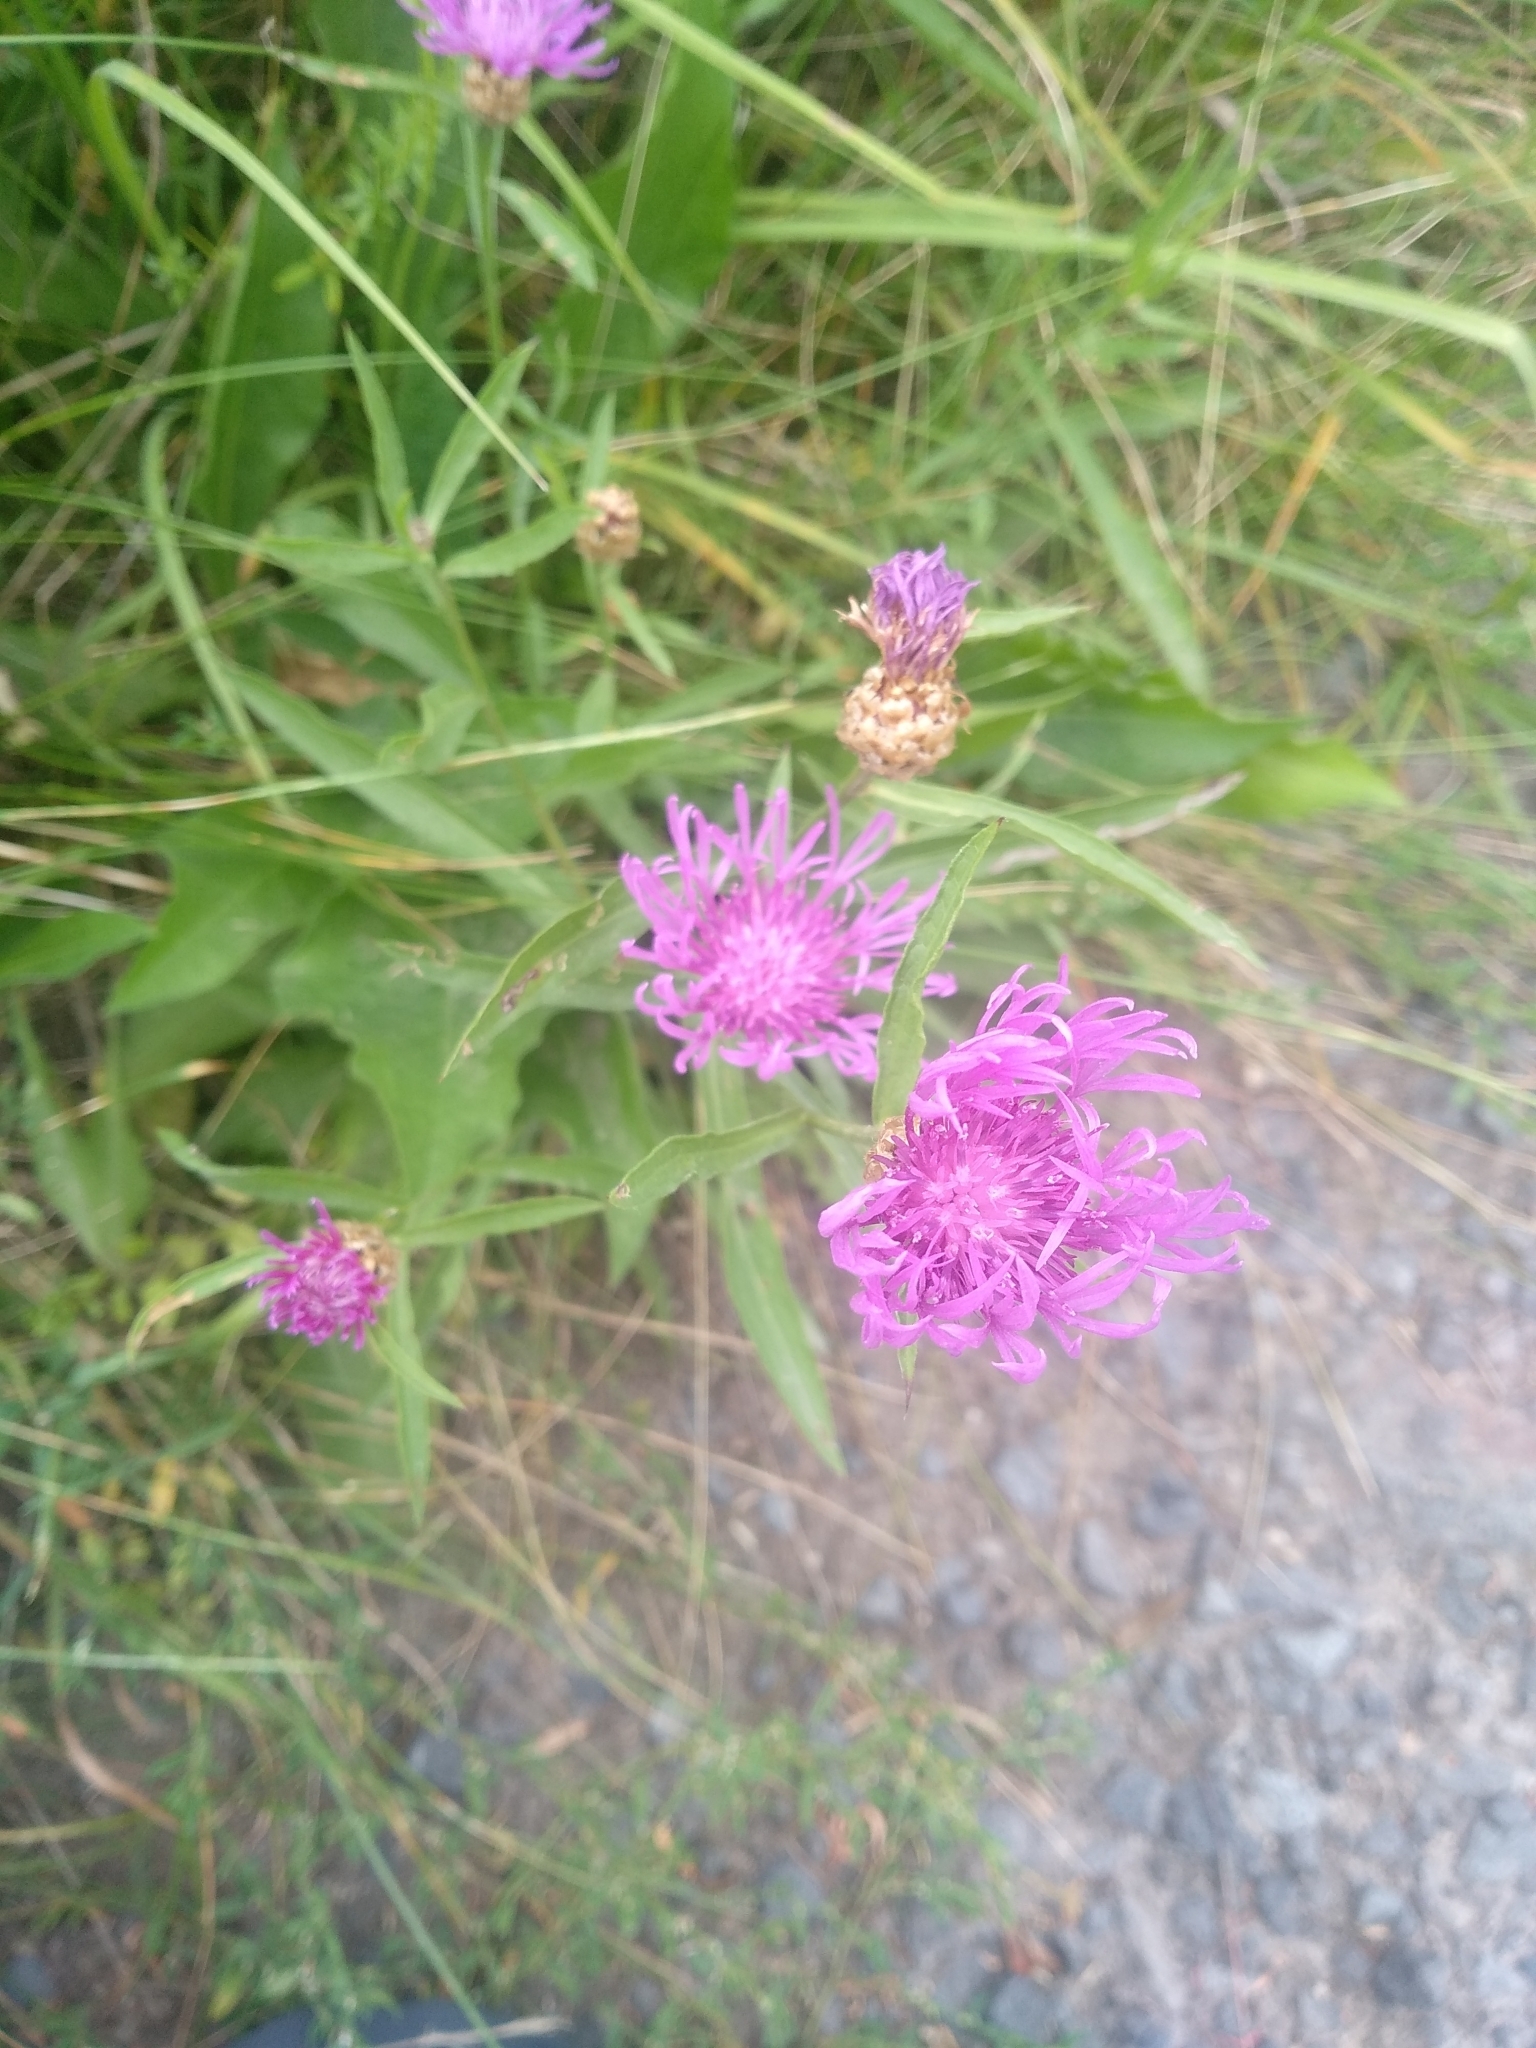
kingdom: Plantae
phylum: Tracheophyta
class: Magnoliopsida
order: Asterales
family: Asteraceae
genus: Centaurea
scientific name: Centaurea jacea
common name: Brown knapweed
